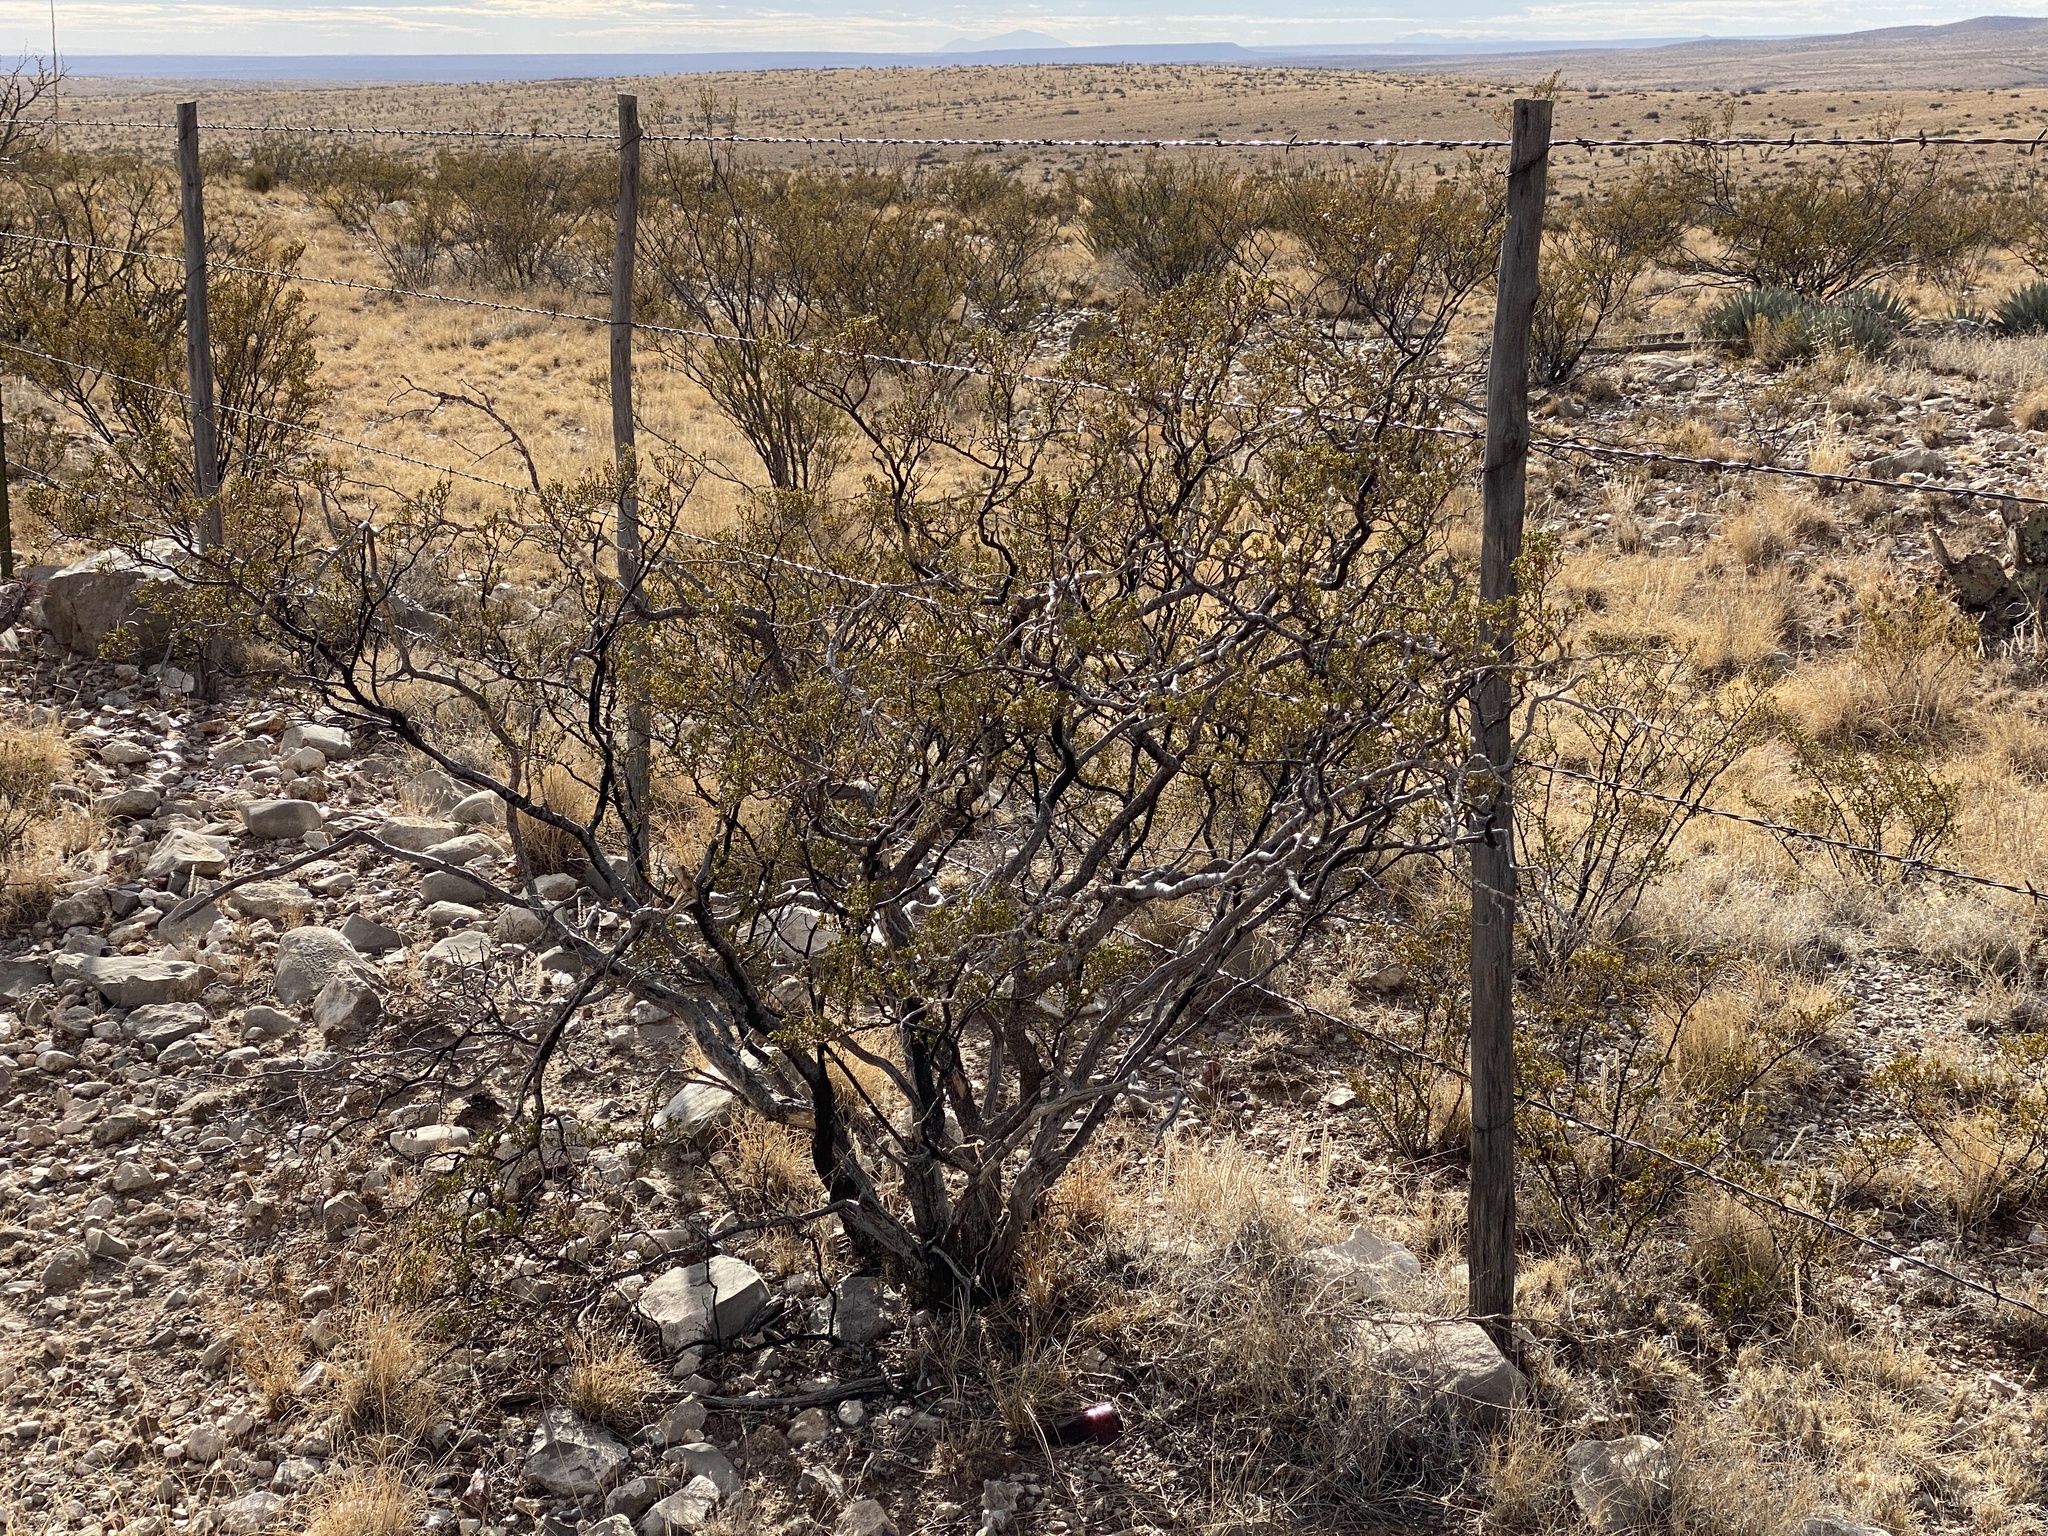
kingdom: Plantae
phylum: Tracheophyta
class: Magnoliopsida
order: Zygophyllales
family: Zygophyllaceae
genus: Larrea
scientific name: Larrea tridentata
